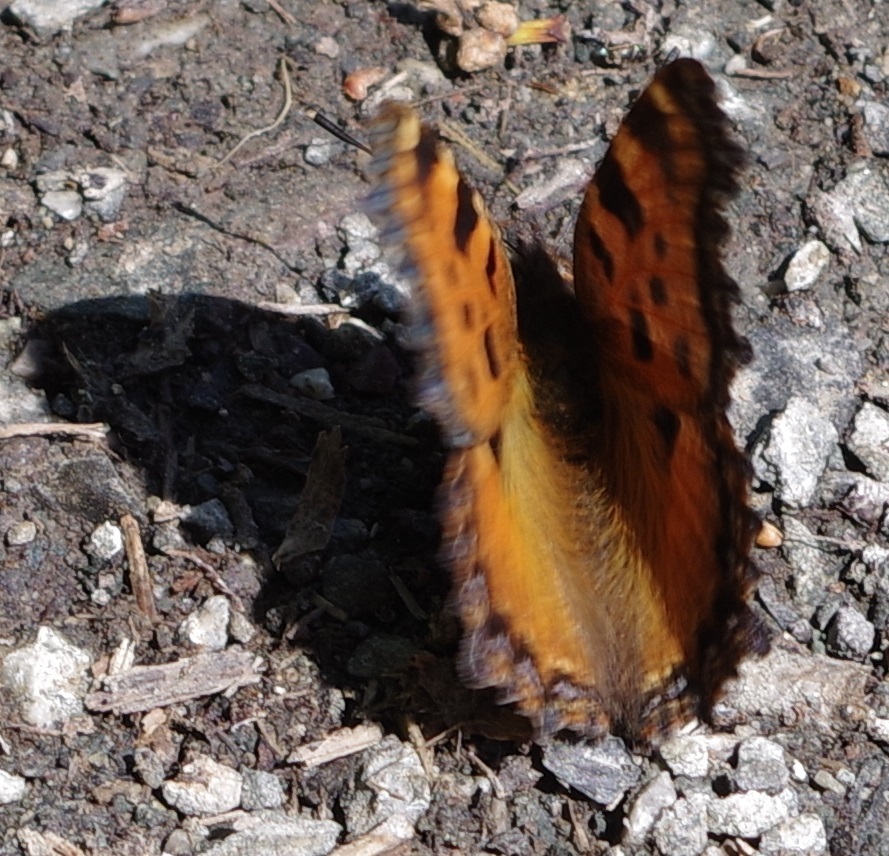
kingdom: Animalia
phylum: Arthropoda
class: Insecta
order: Lepidoptera
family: Nymphalidae
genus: Nymphalis
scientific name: Nymphalis polychloros
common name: Large tortoiseshell
